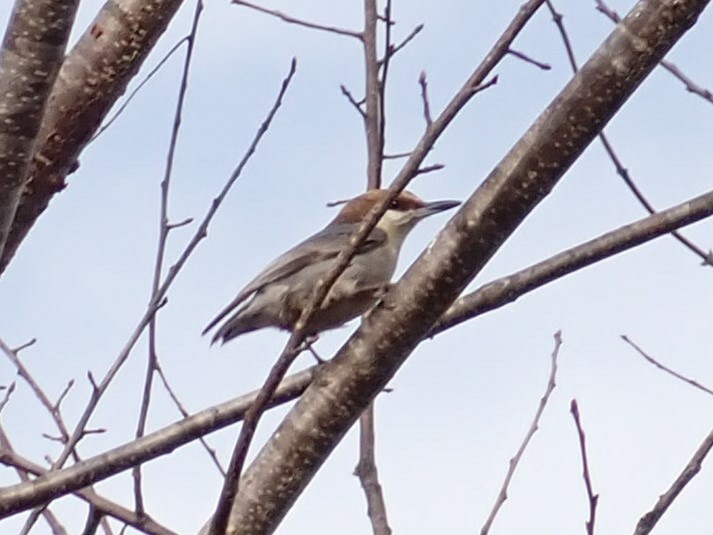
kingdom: Animalia
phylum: Chordata
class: Aves
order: Passeriformes
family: Sittidae
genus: Sitta
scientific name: Sitta pusilla
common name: Brown-headed nuthatch
